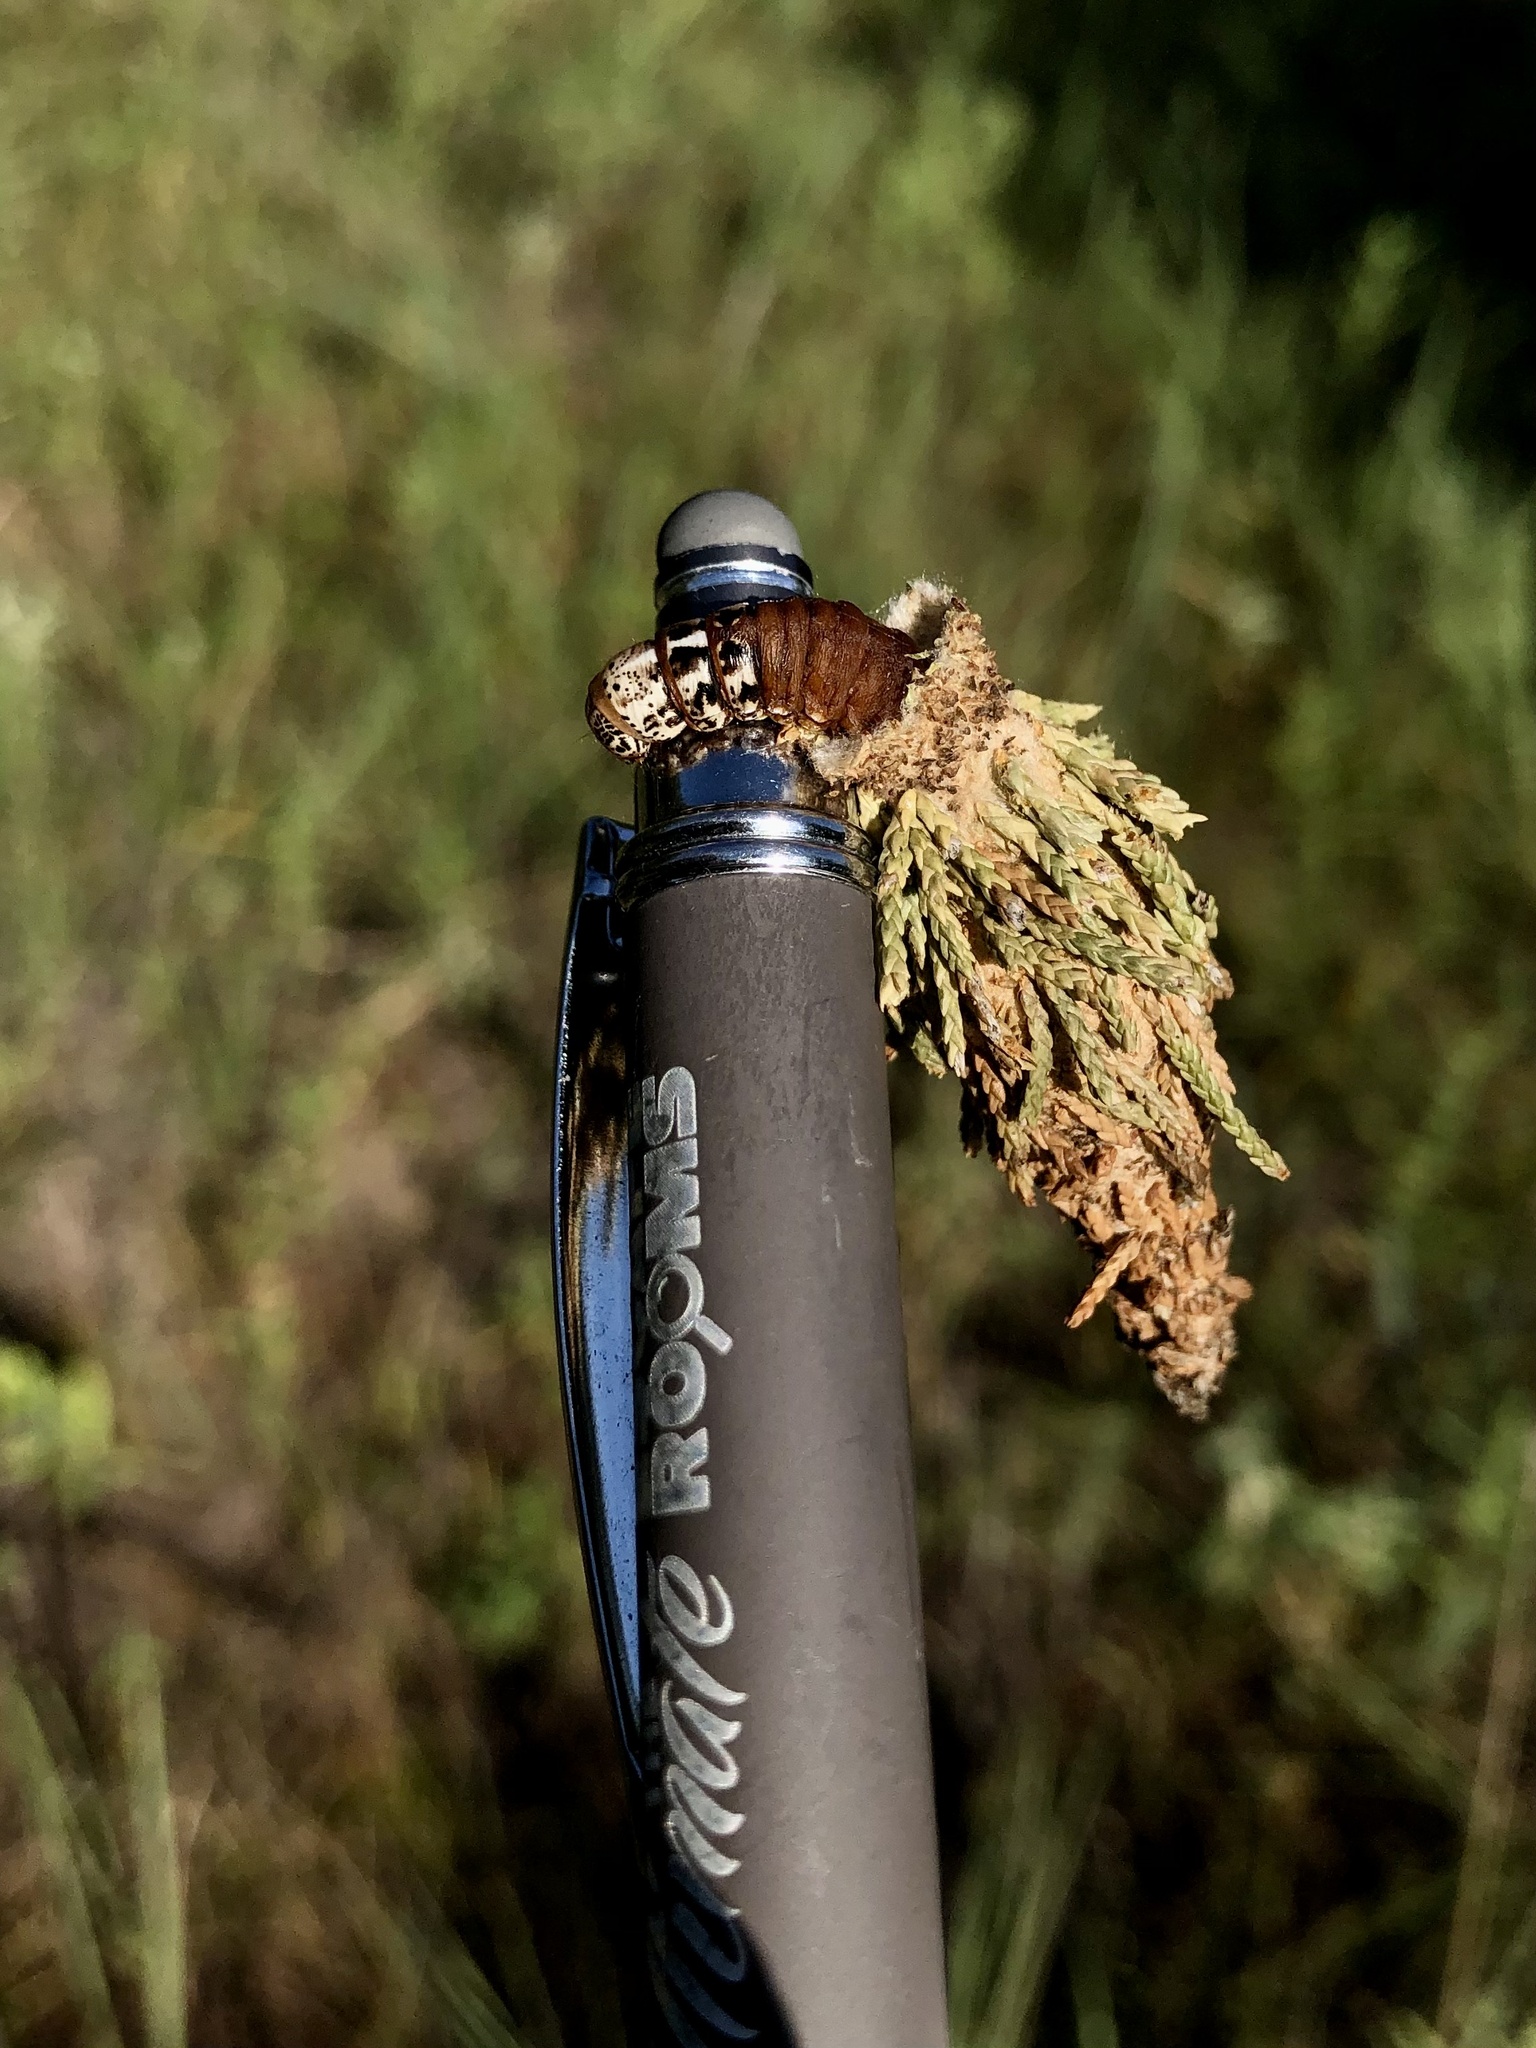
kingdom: Animalia
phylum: Arthropoda
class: Insecta
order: Lepidoptera
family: Psychidae
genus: Thyridopteryx
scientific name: Thyridopteryx ephemeraeformis
